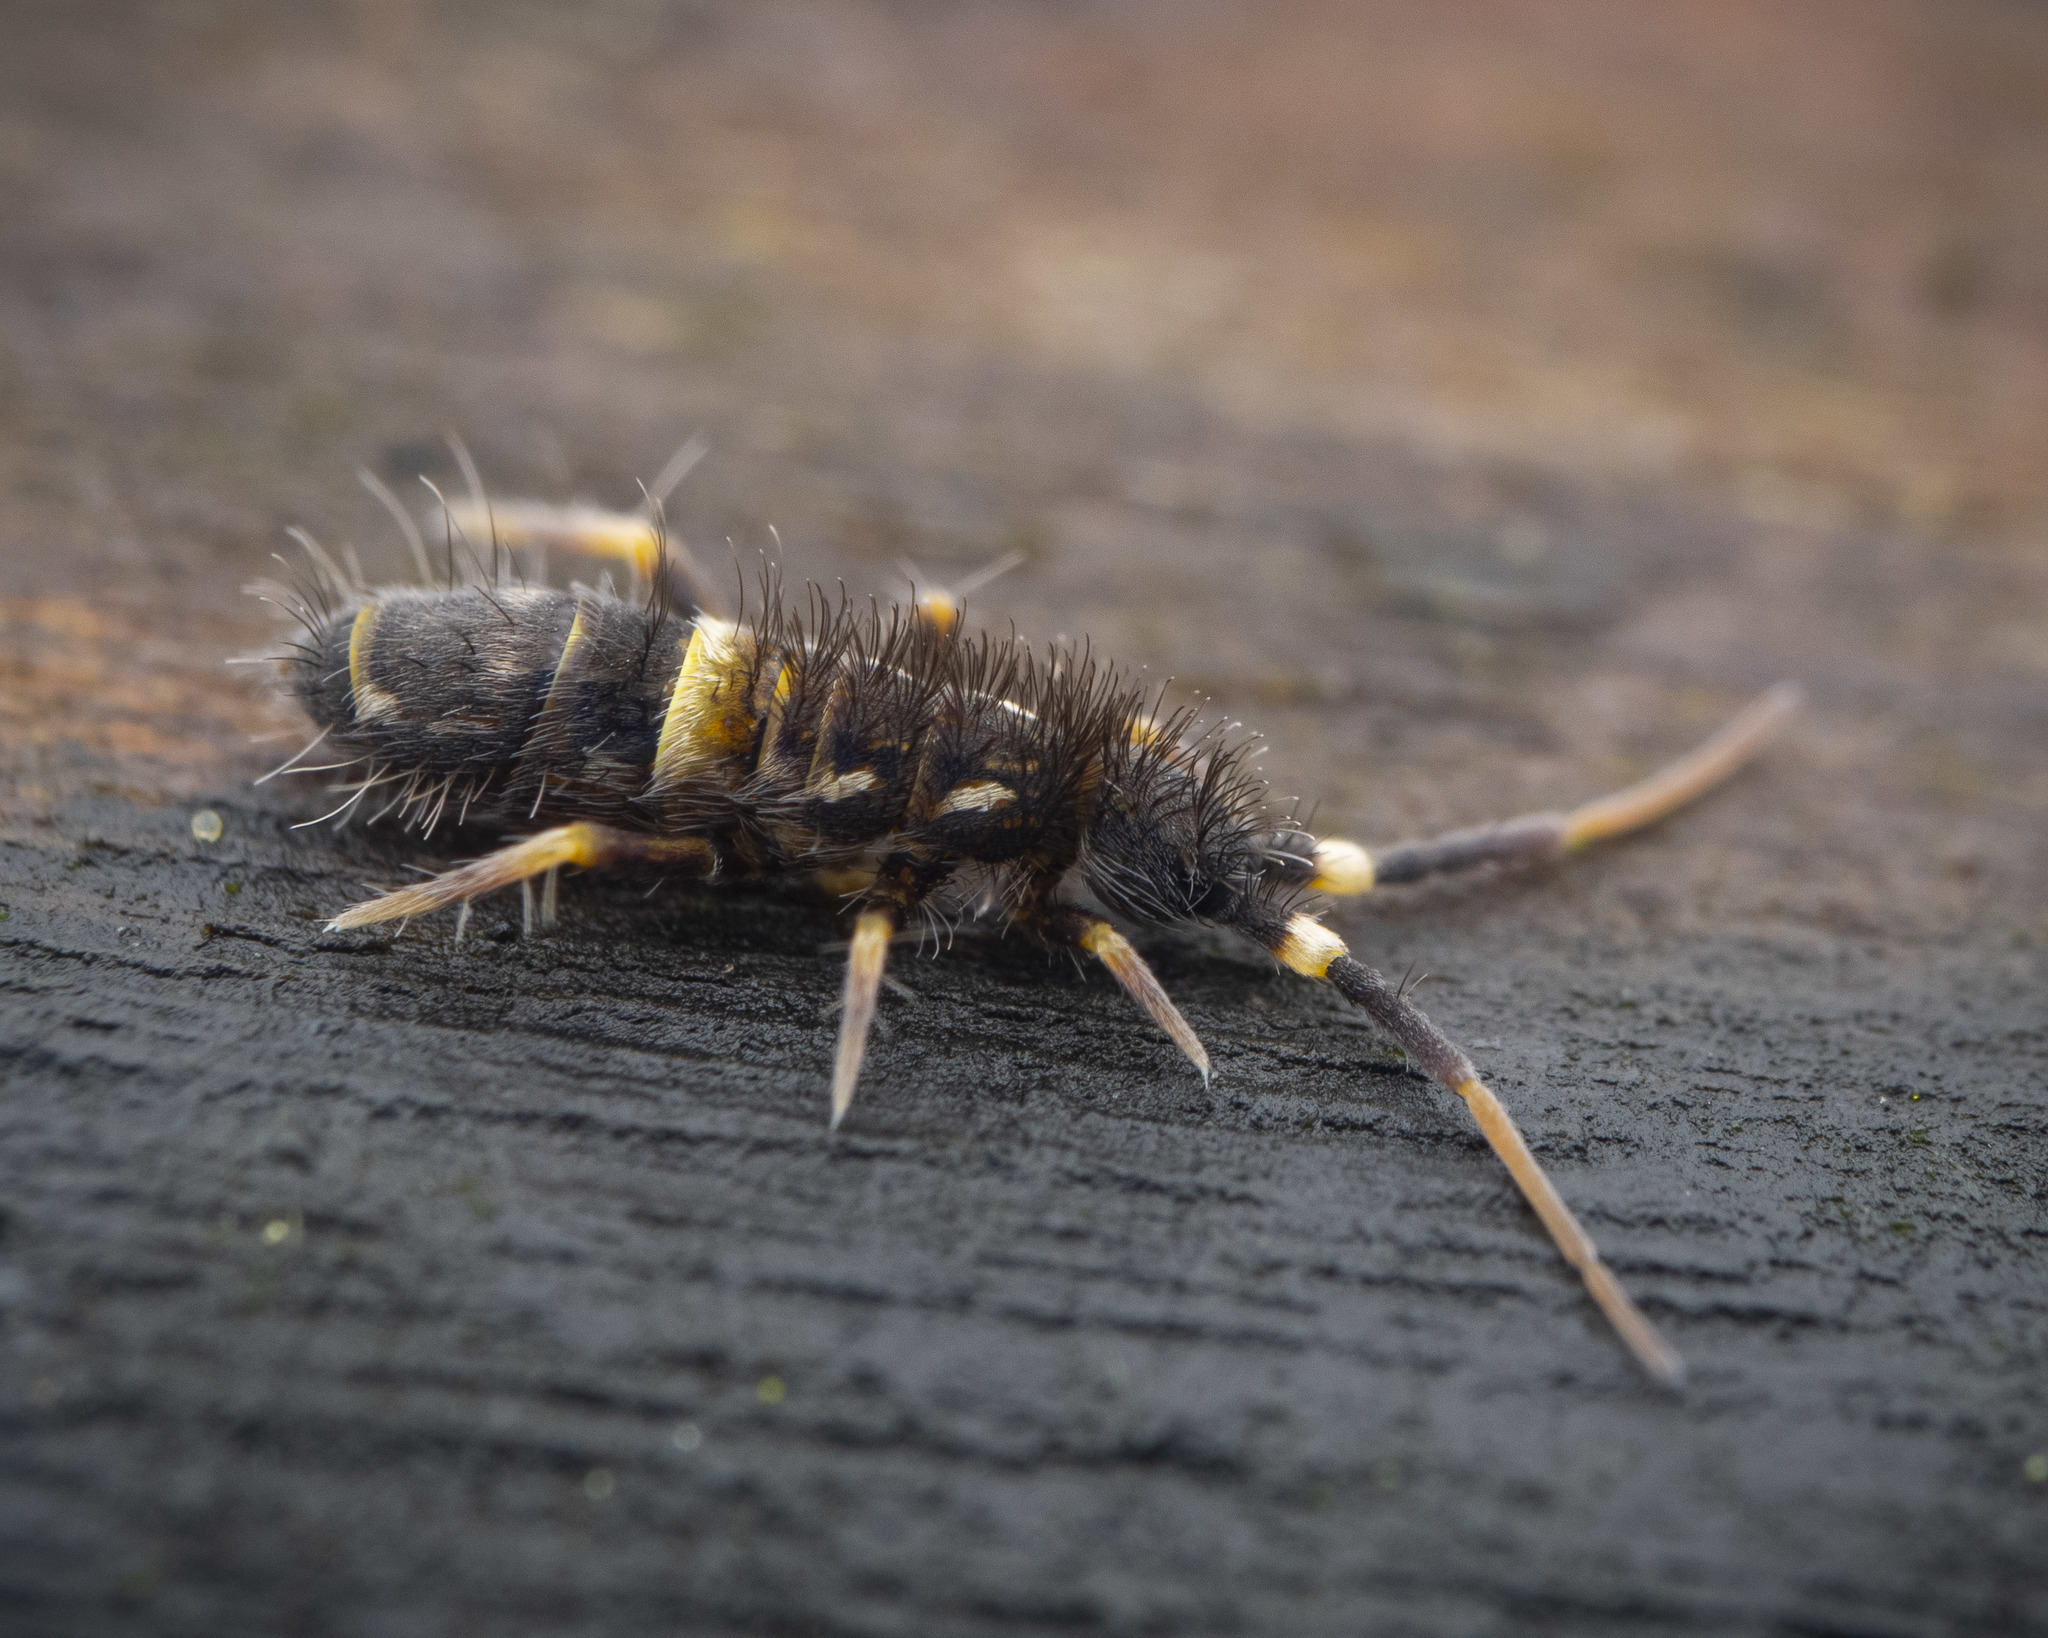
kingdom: Animalia
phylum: Arthropoda
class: Collembola
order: Entomobryomorpha
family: Orchesellidae
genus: Orchesella
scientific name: Orchesella cincta
